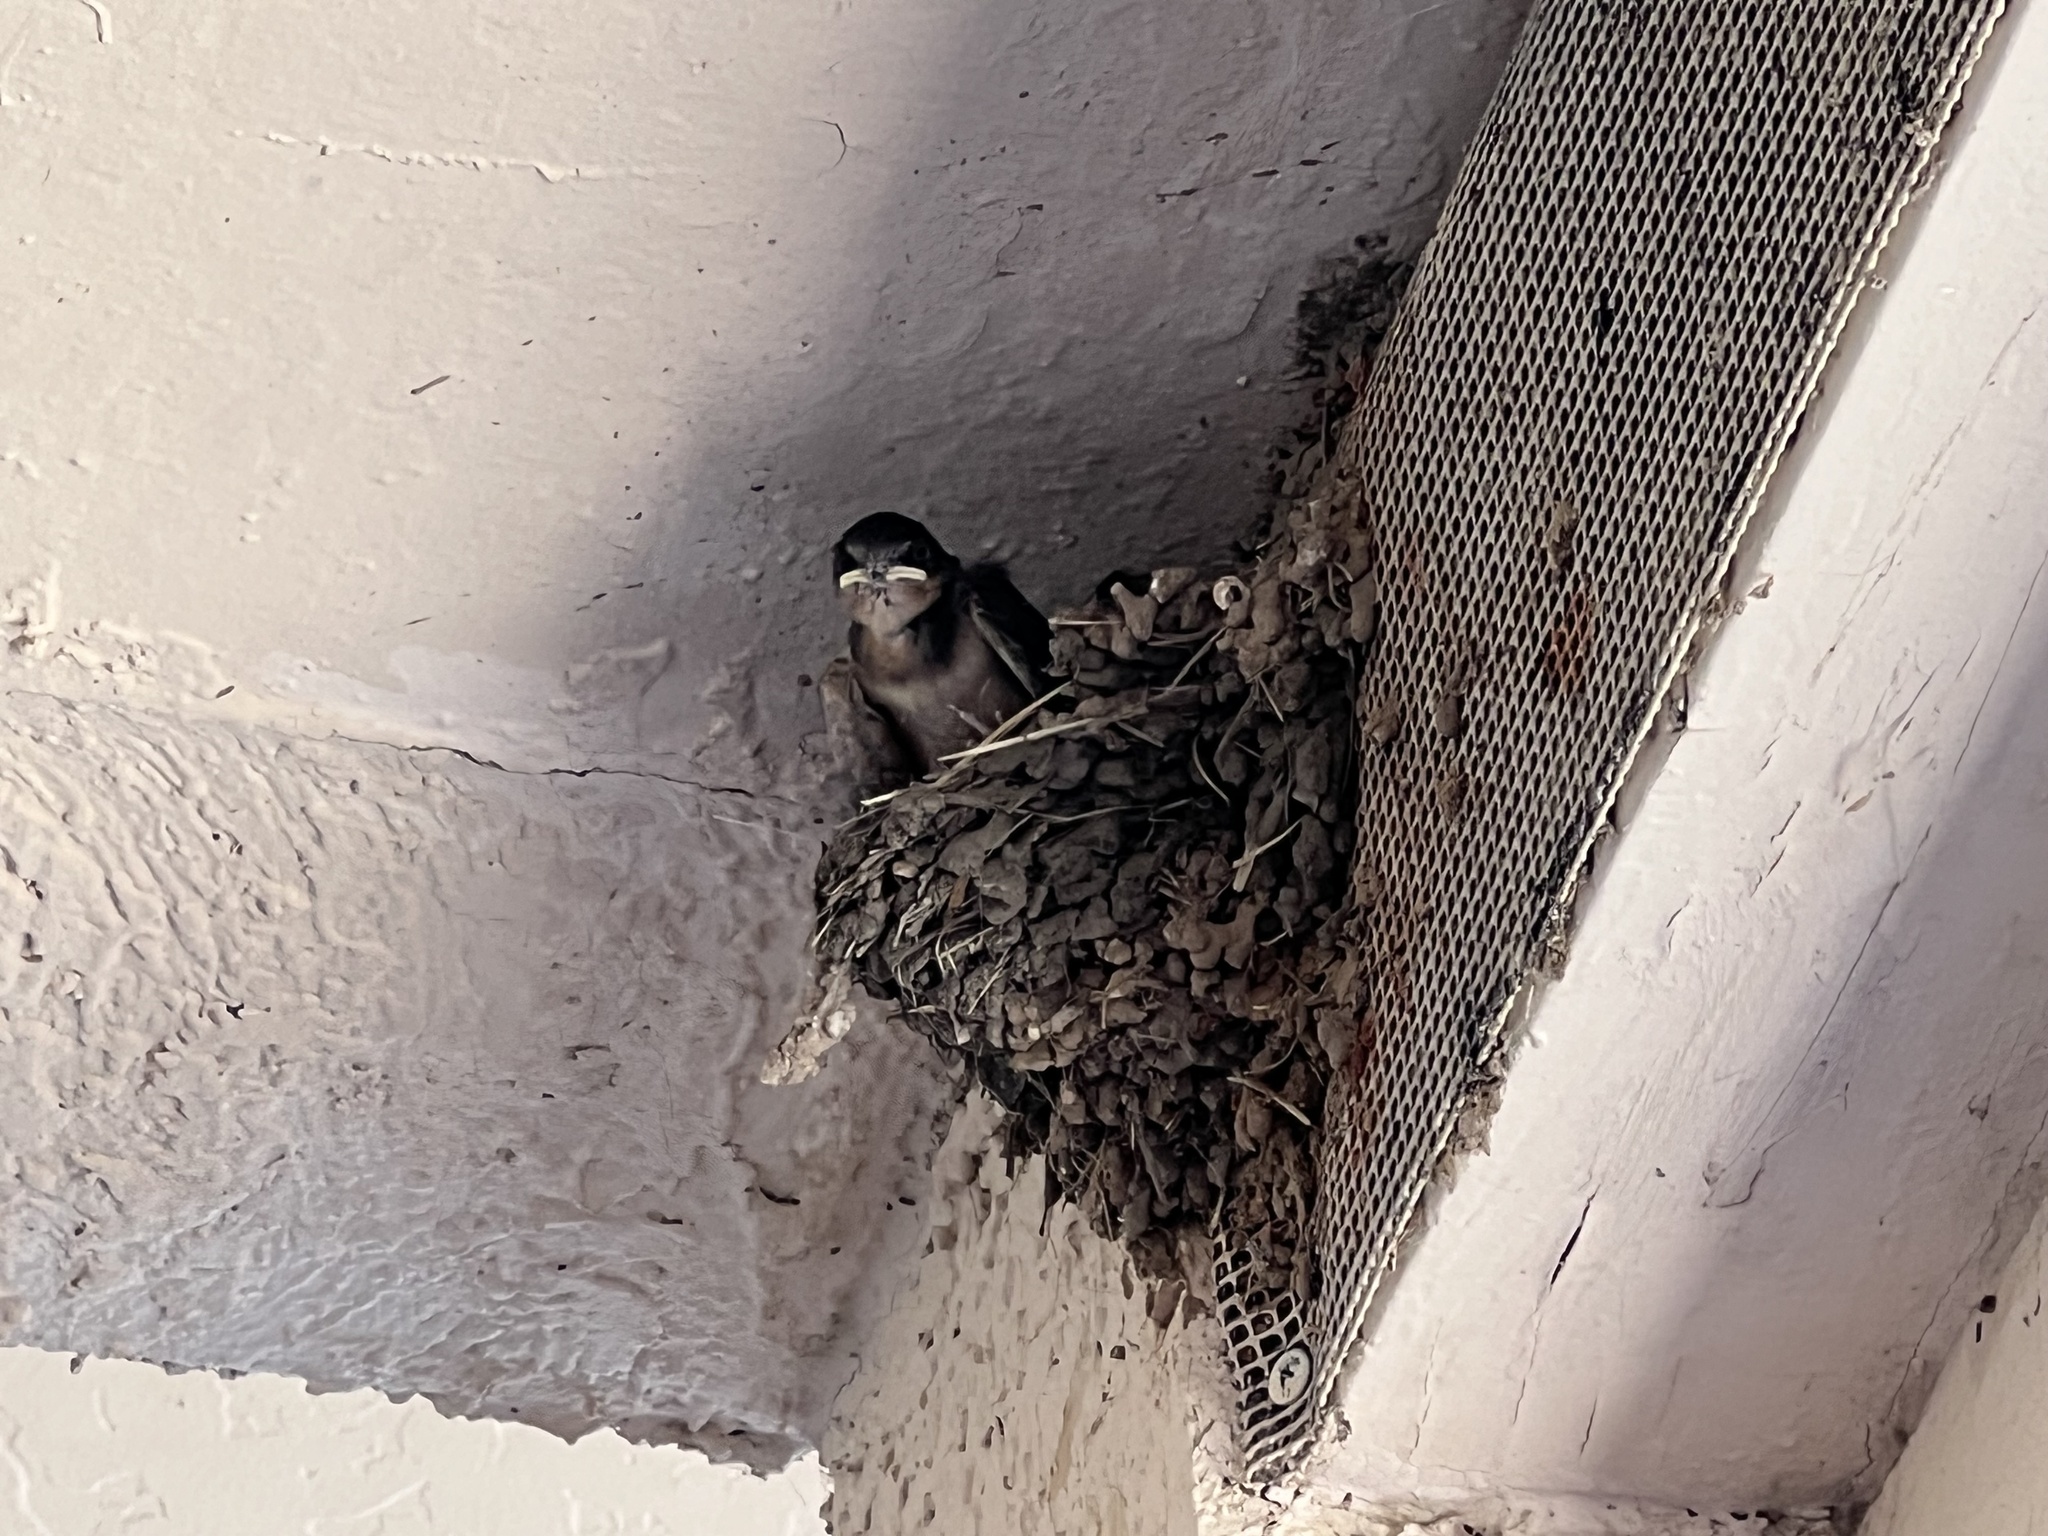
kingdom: Animalia
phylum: Chordata
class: Aves
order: Passeriformes
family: Hirundinidae
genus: Hirundo
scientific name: Hirundo rustica
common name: Barn swallow
